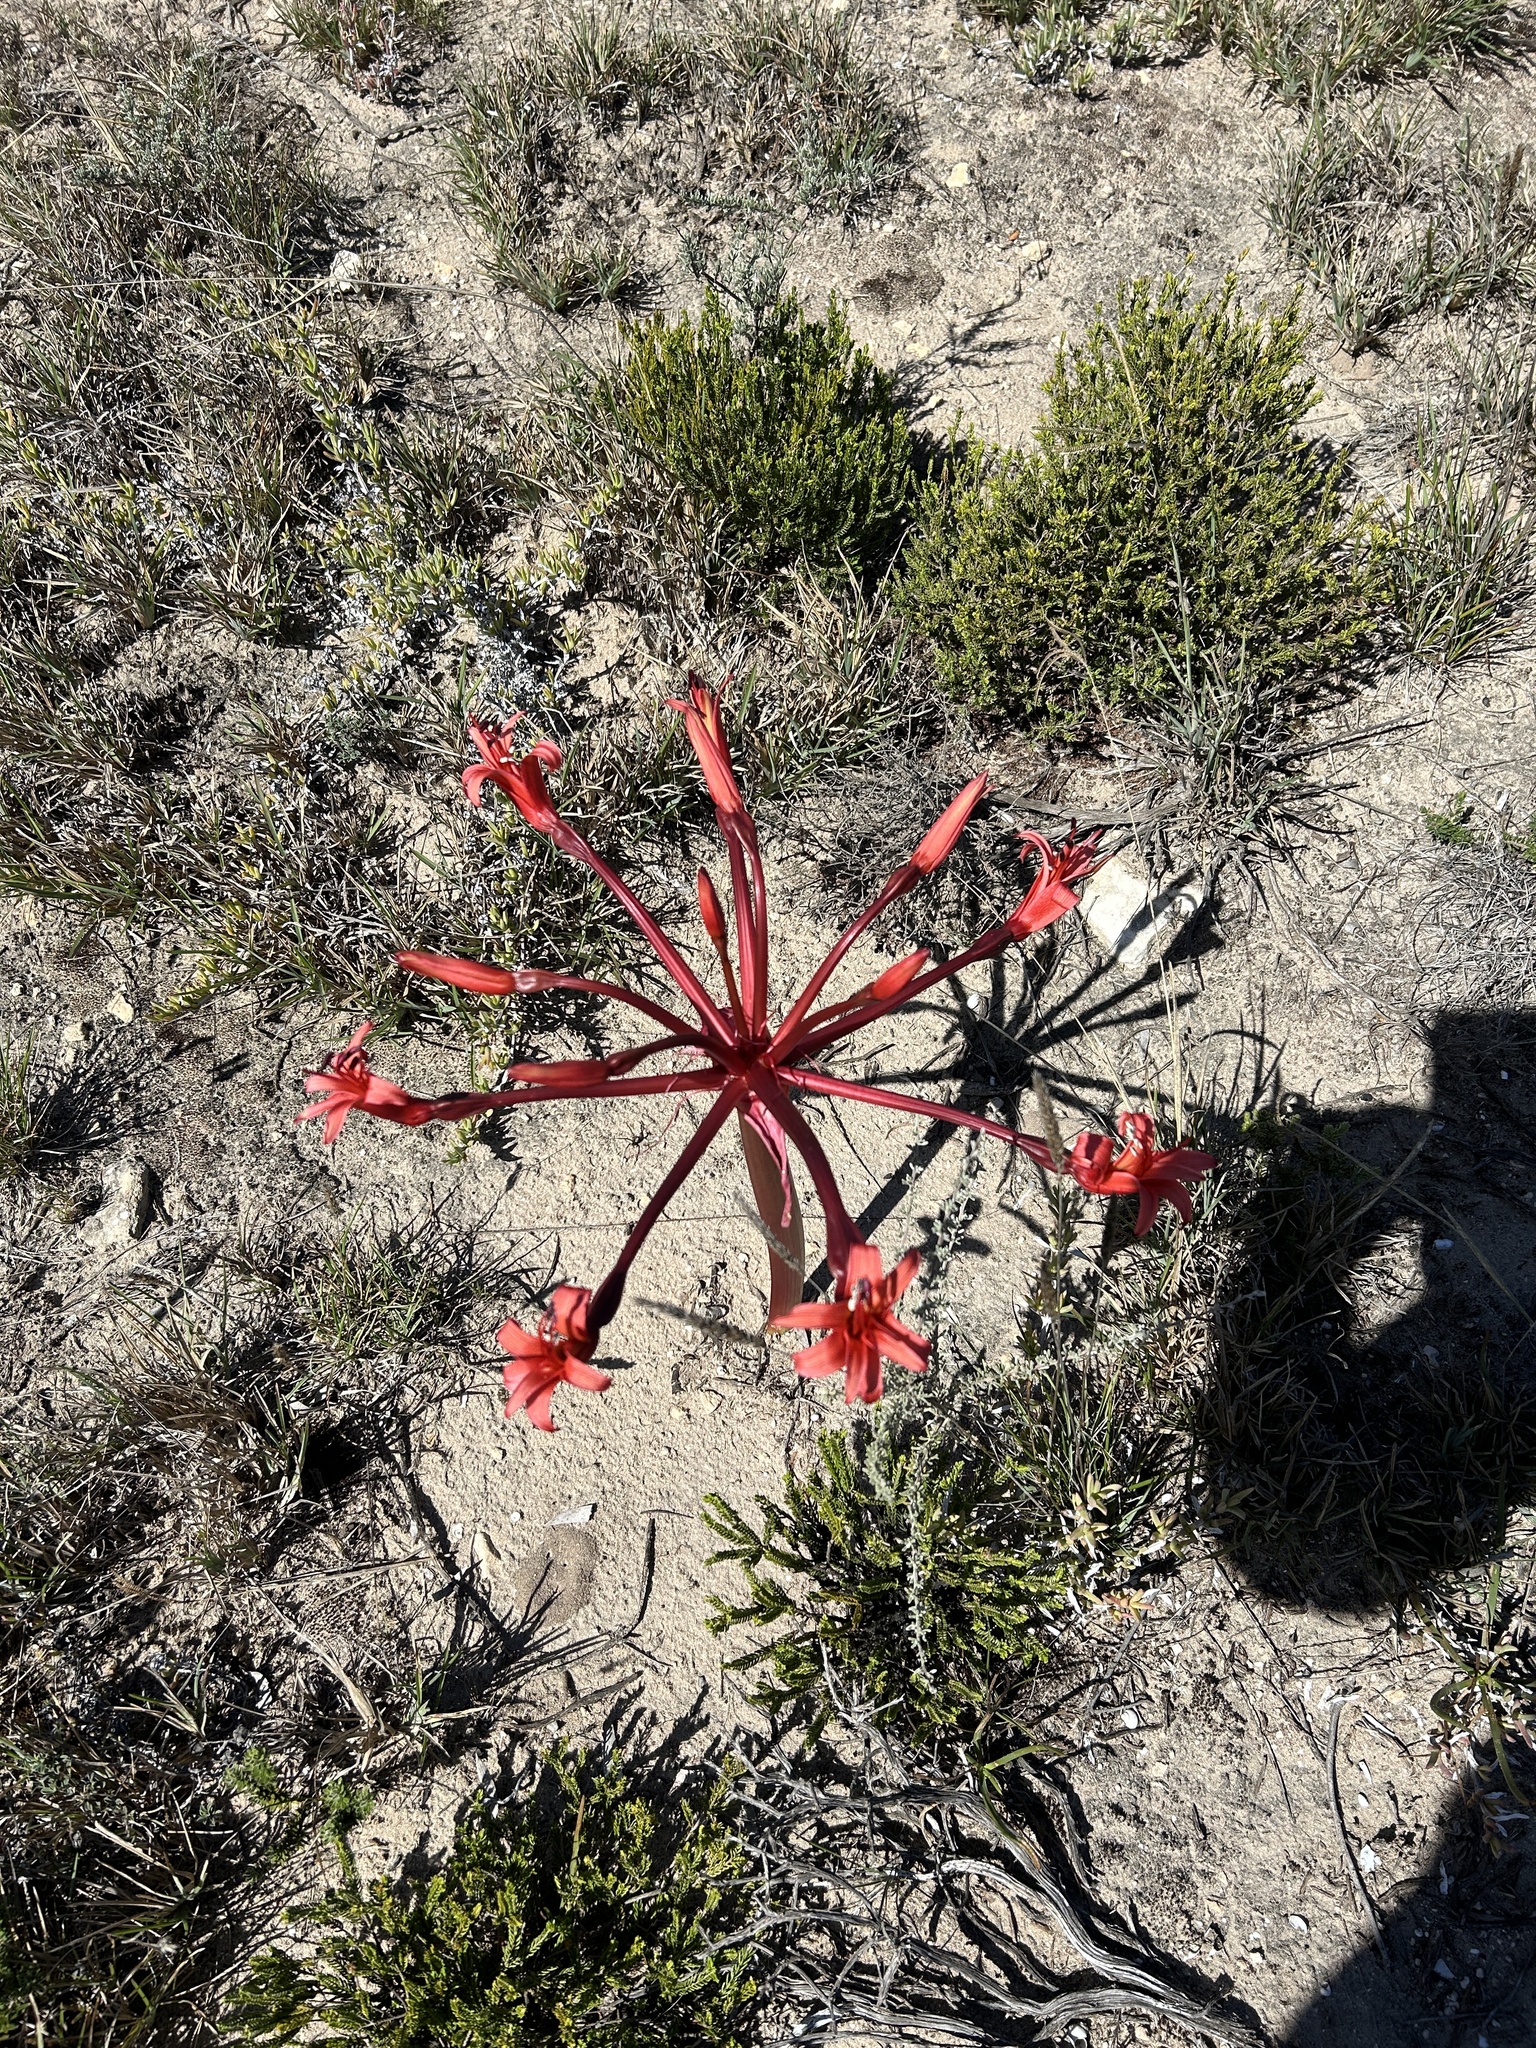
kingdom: Plantae
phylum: Tracheophyta
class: Liliopsida
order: Asparagales
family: Amaryllidaceae
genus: Brunsvigia
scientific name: Brunsvigia orientalis
